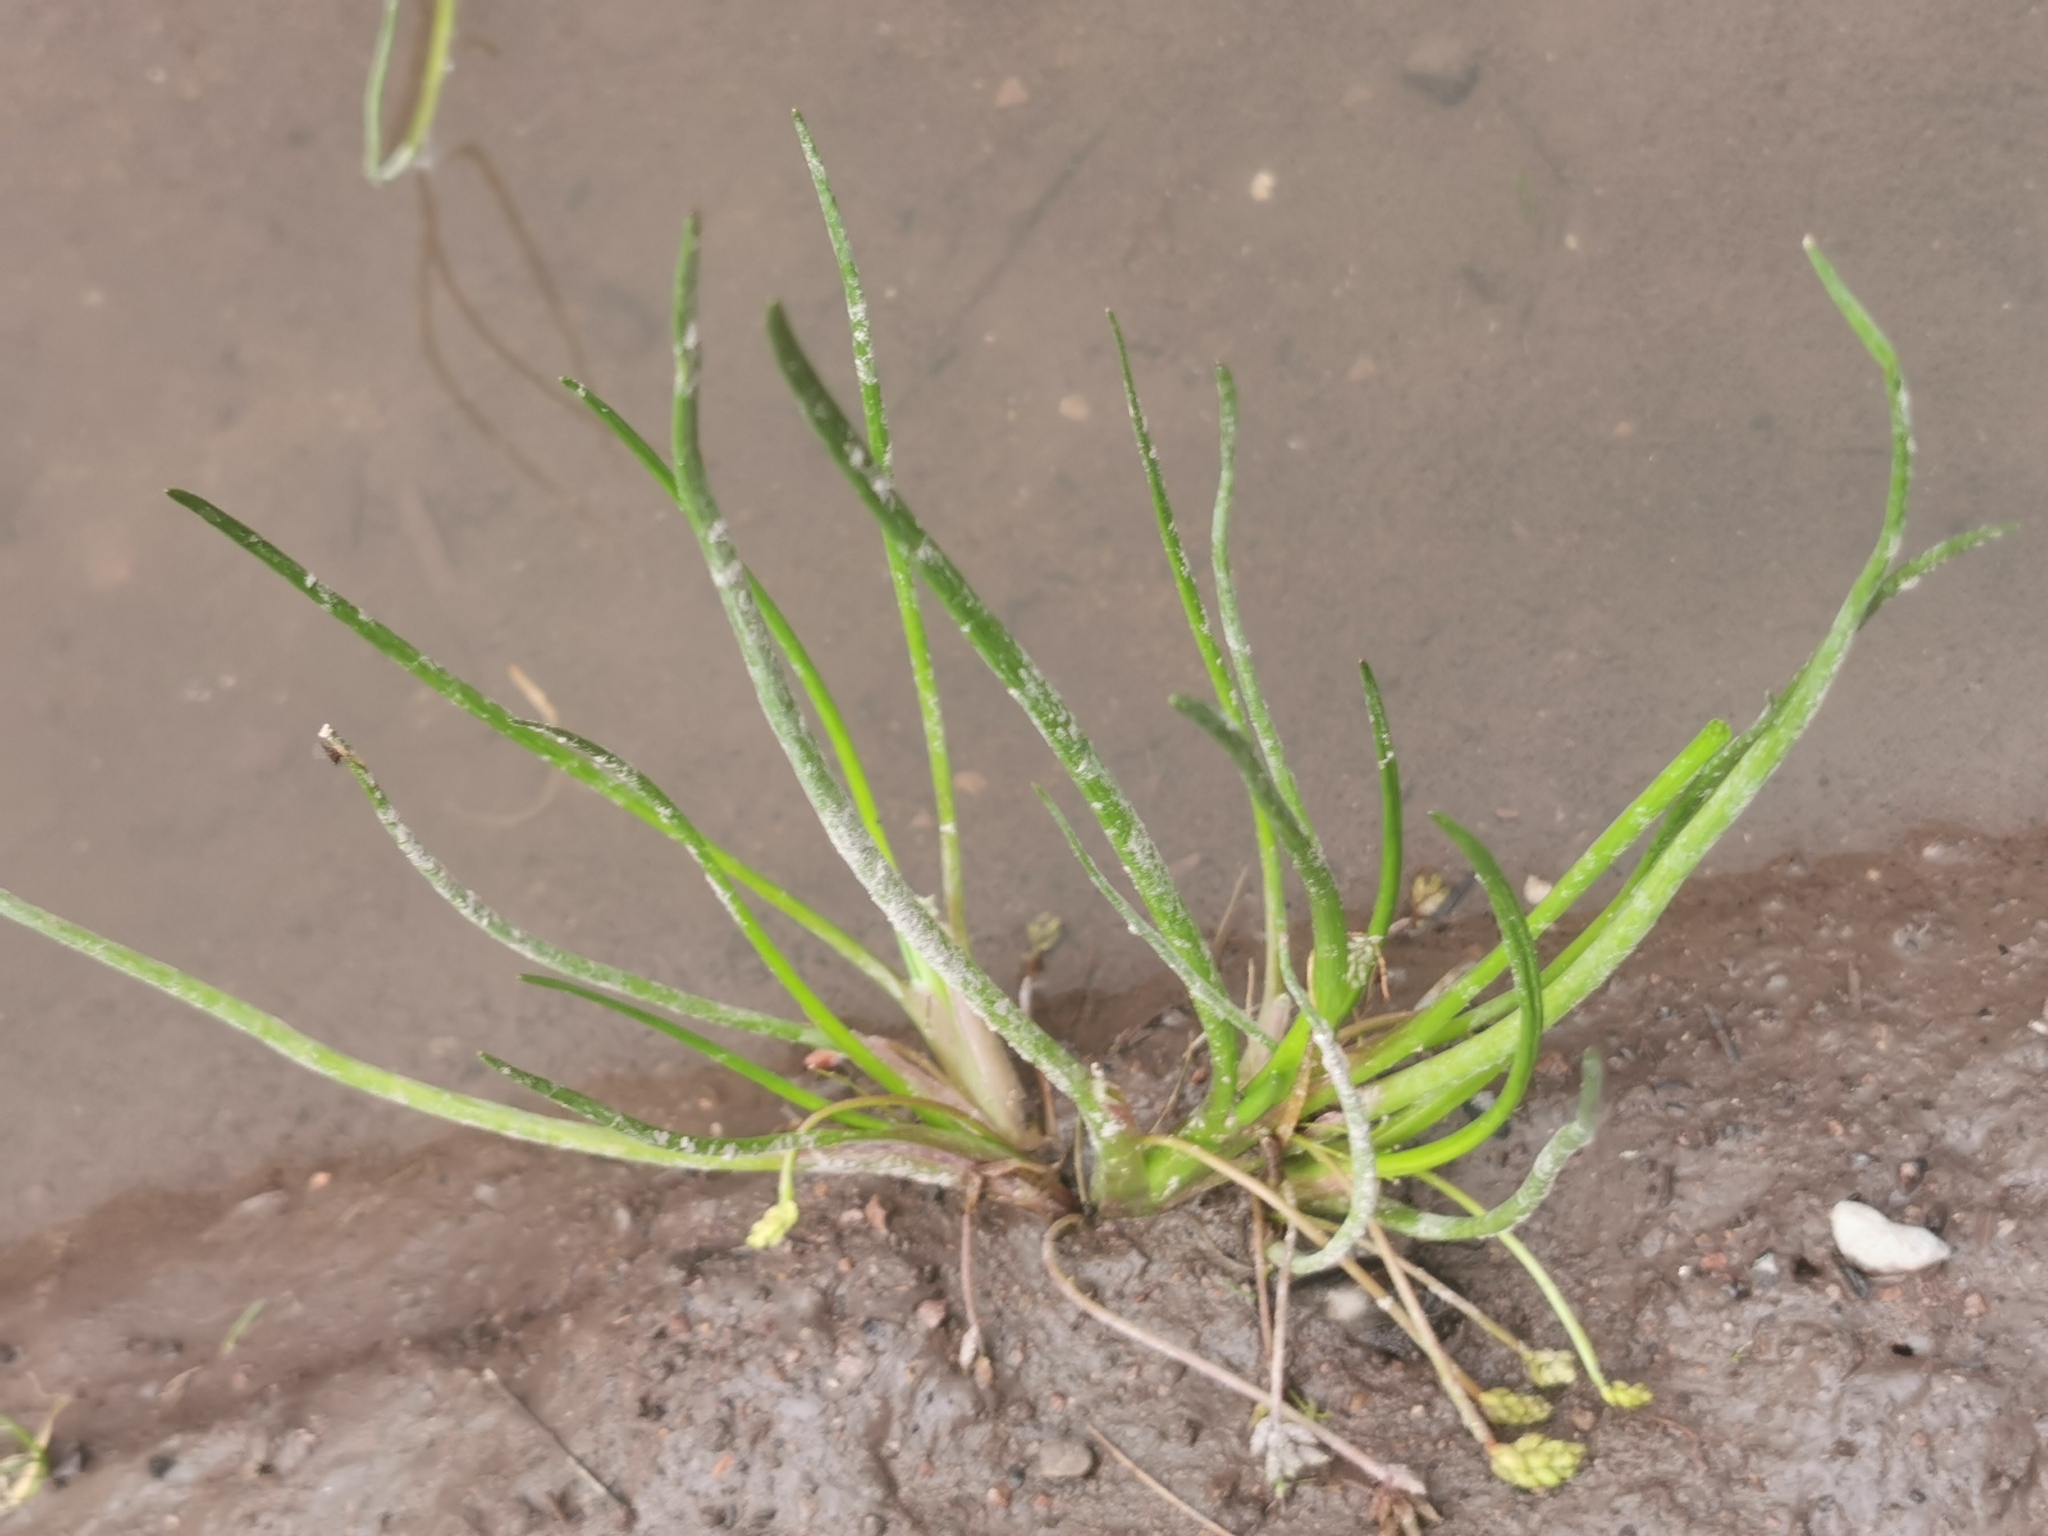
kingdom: Plantae
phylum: Tracheophyta
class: Liliopsida
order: Alismatales
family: Juncaginaceae
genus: Triglochin
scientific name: Triglochin scilloides
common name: Awl-leaved lilaea
